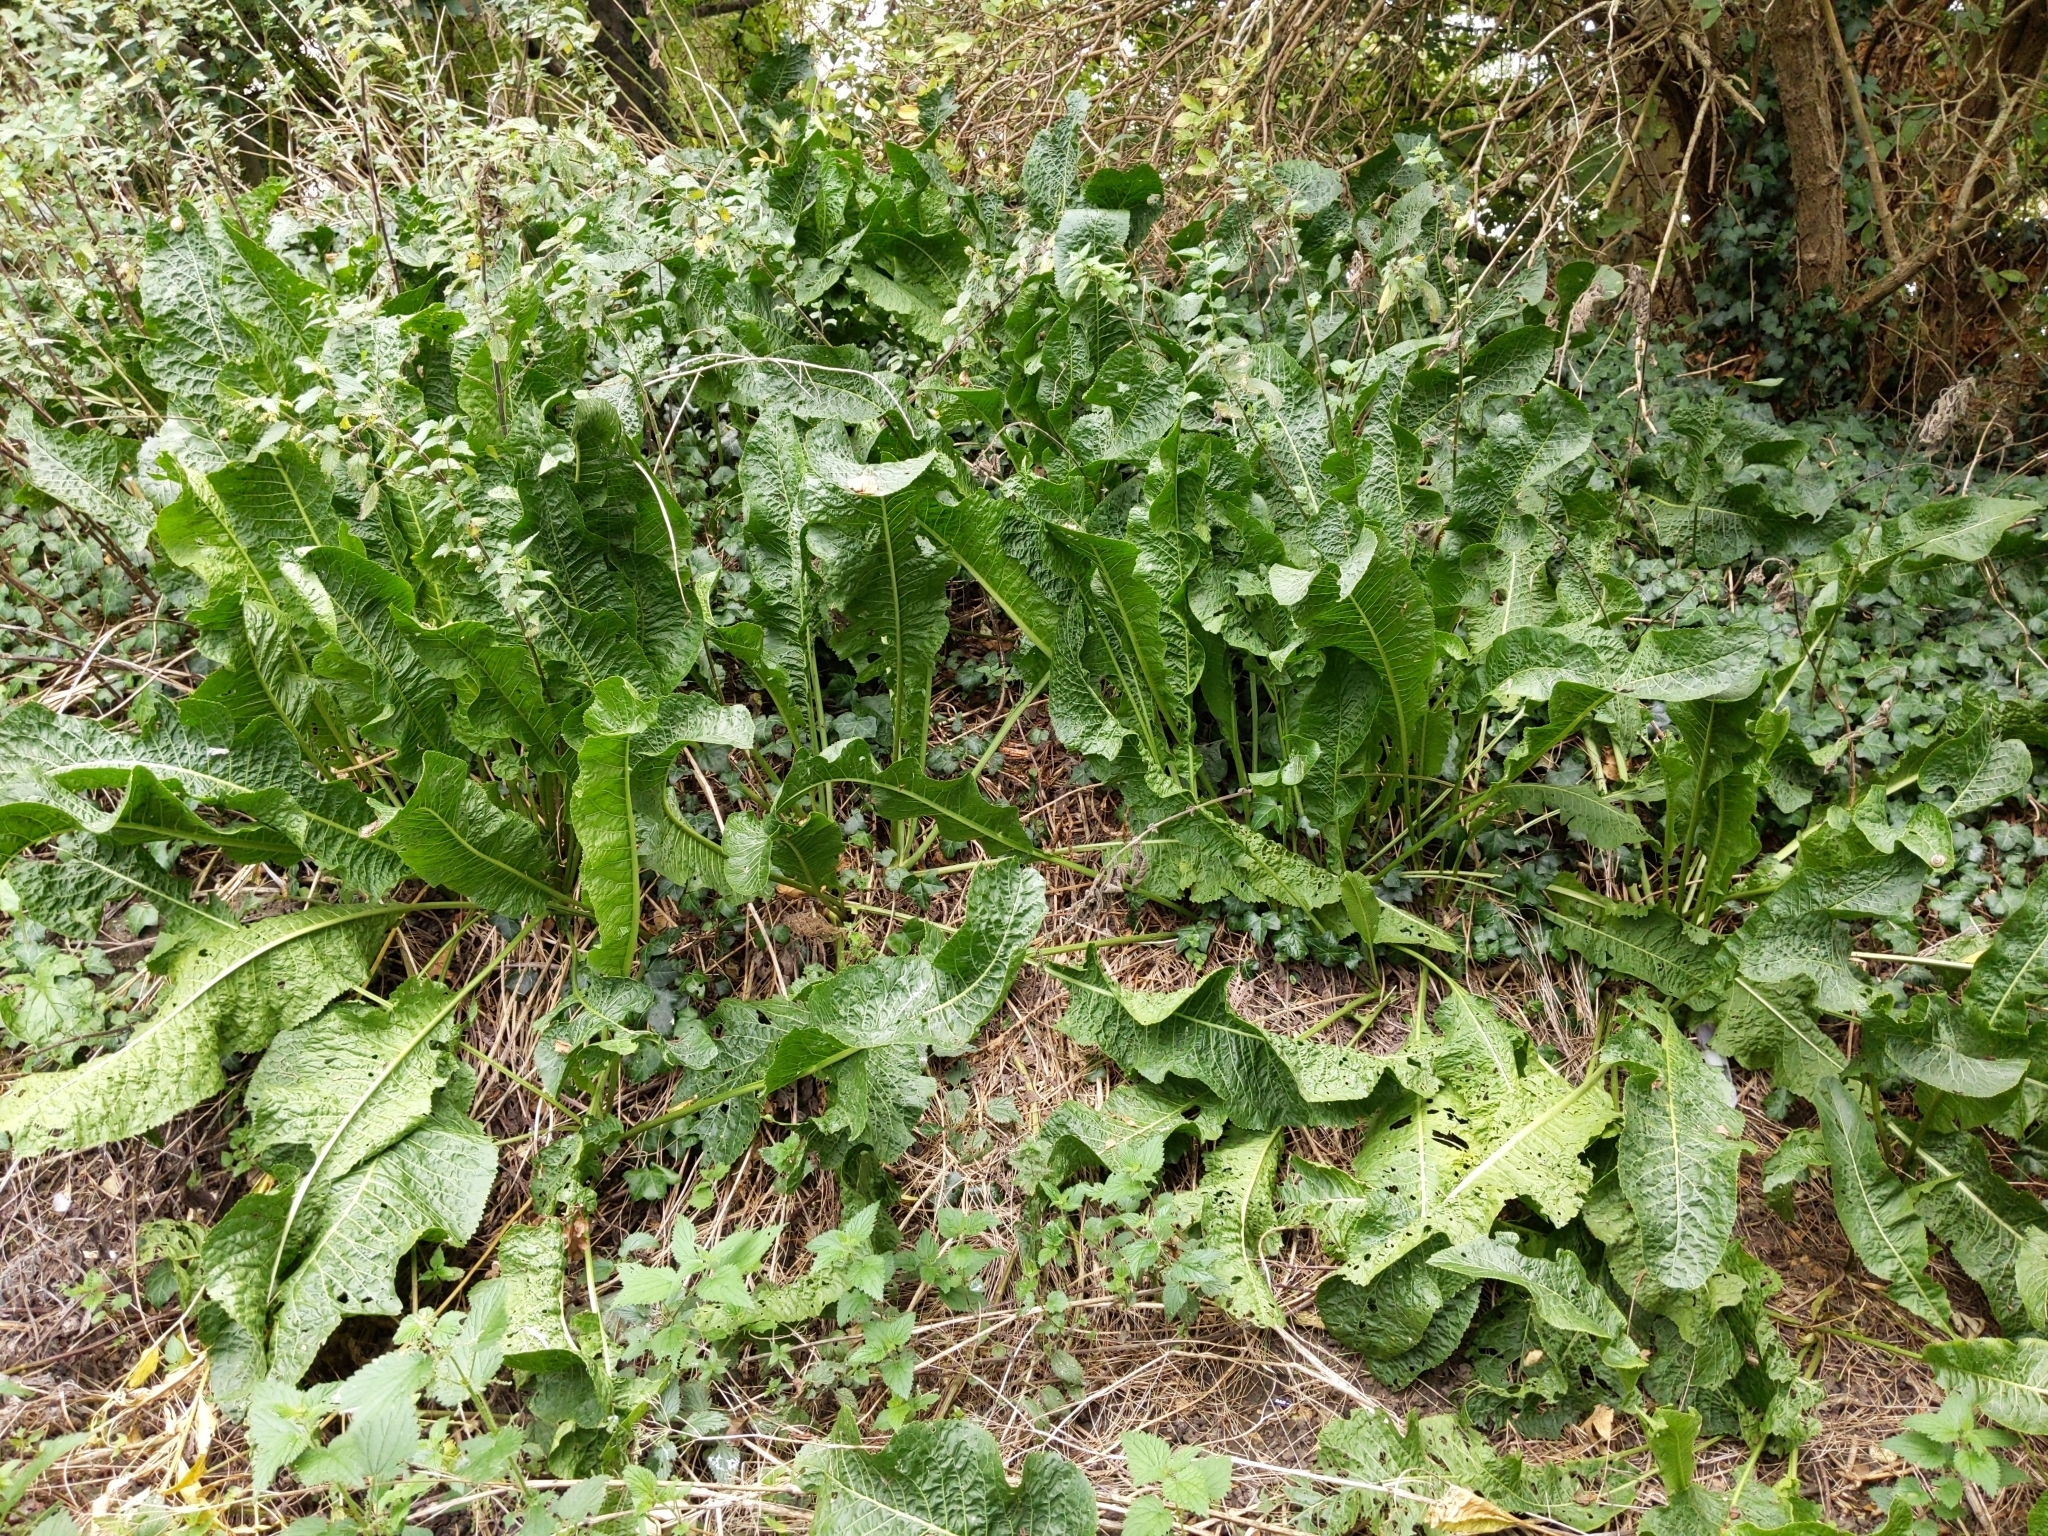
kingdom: Plantae
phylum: Tracheophyta
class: Magnoliopsida
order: Brassicales
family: Brassicaceae
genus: Armoracia
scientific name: Armoracia rusticana
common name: Horseradish
